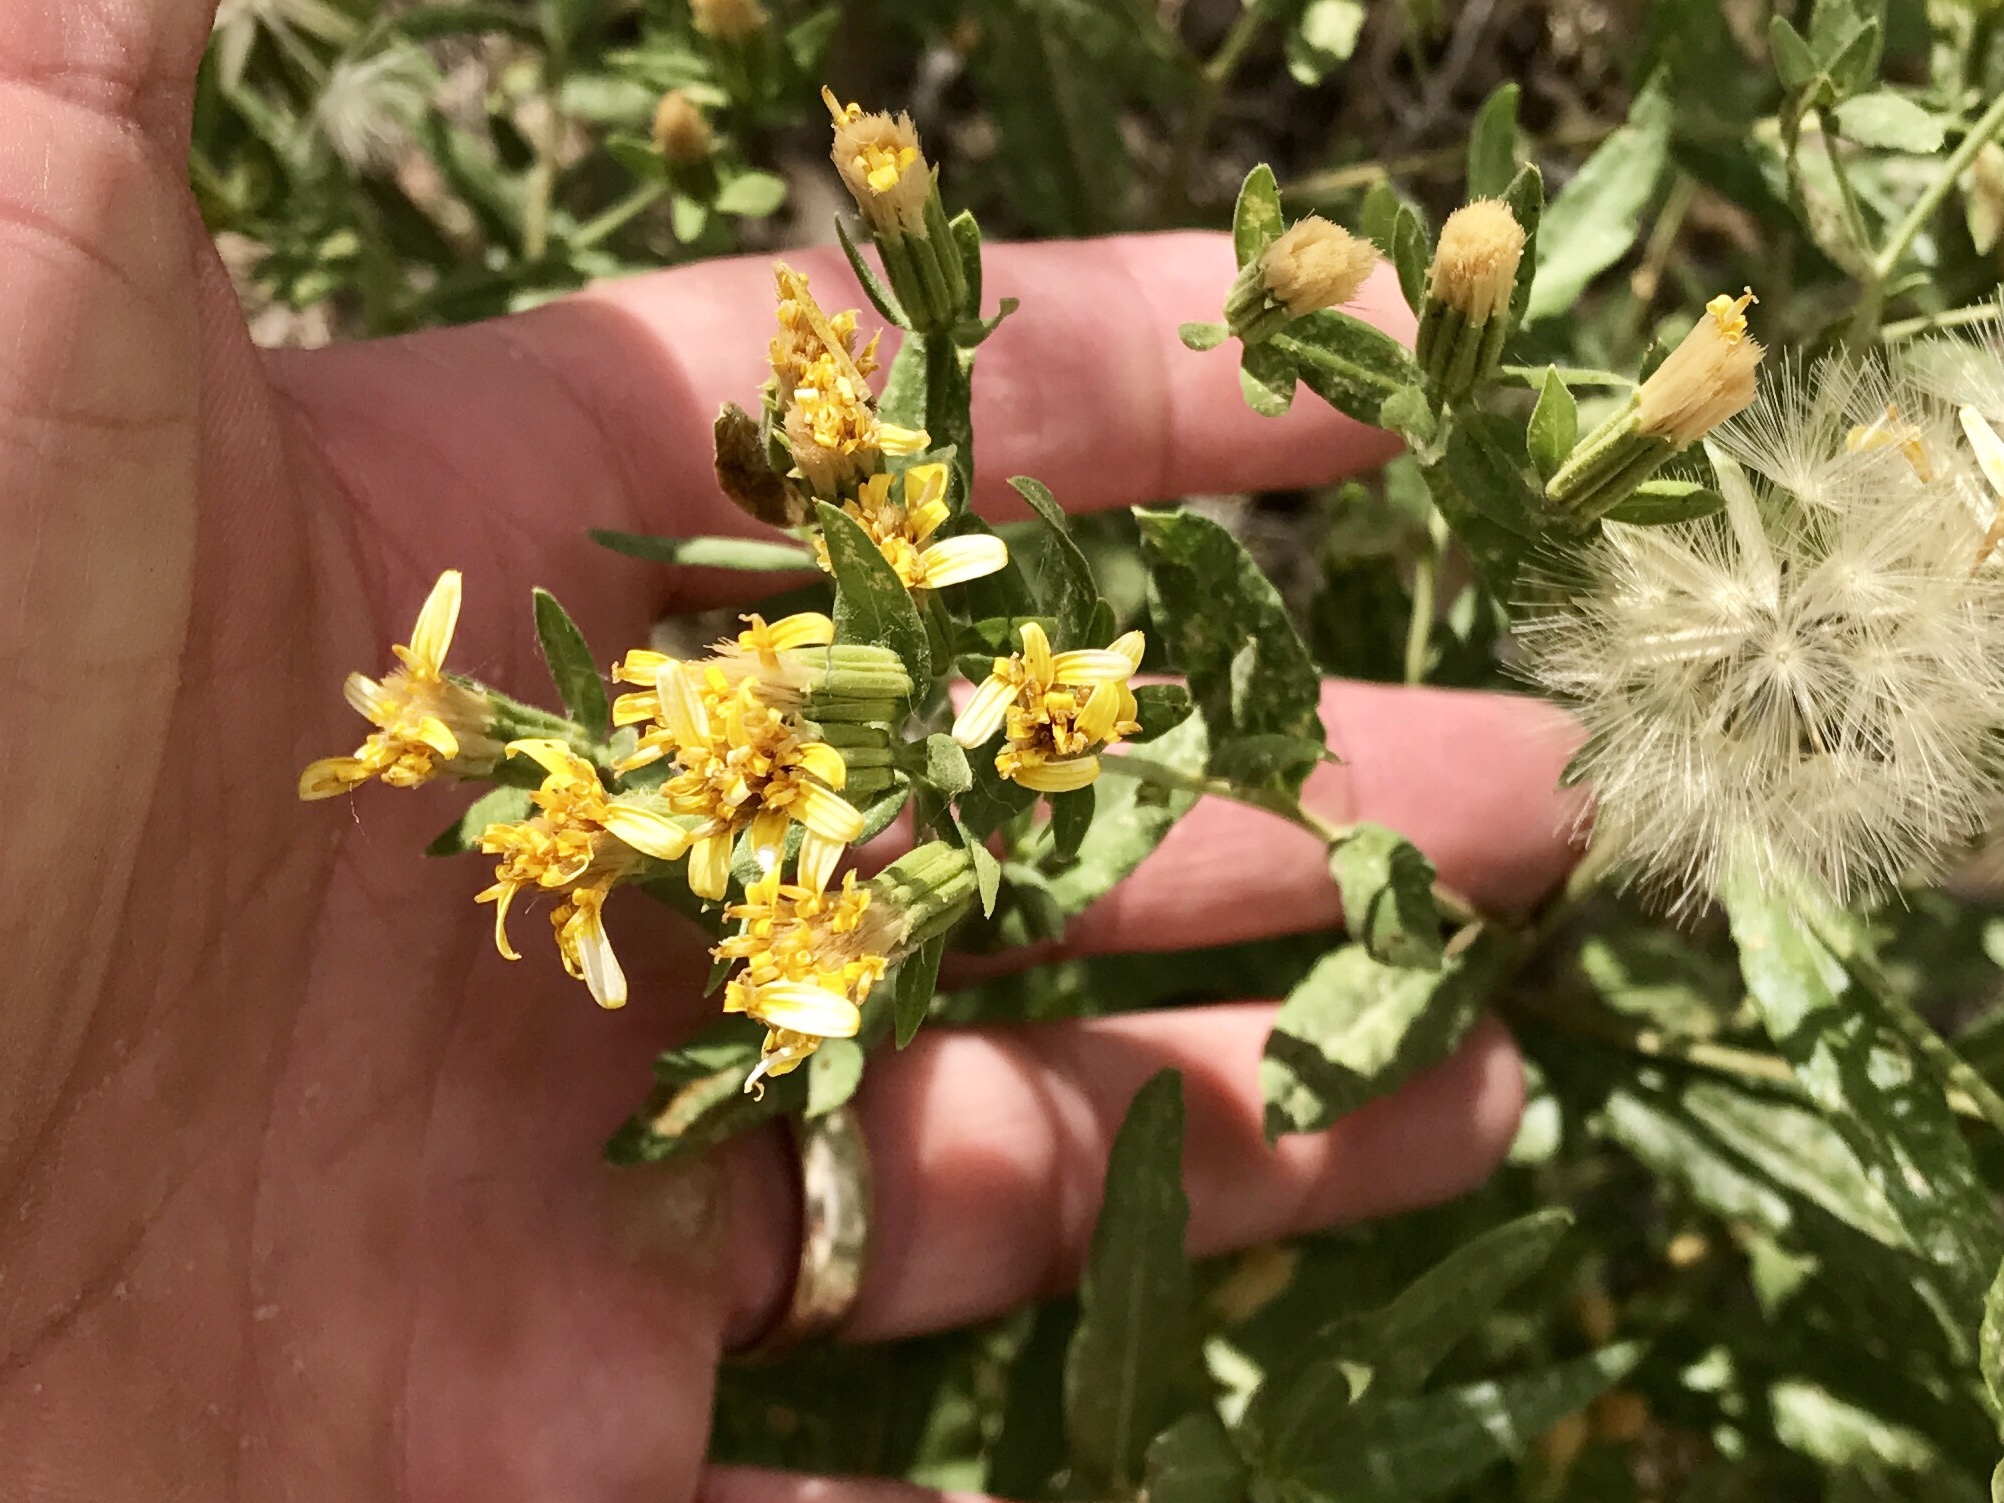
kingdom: Plantae
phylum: Tracheophyta
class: Magnoliopsida
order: Asterales
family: Asteraceae
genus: Trixis
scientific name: Trixis californica
